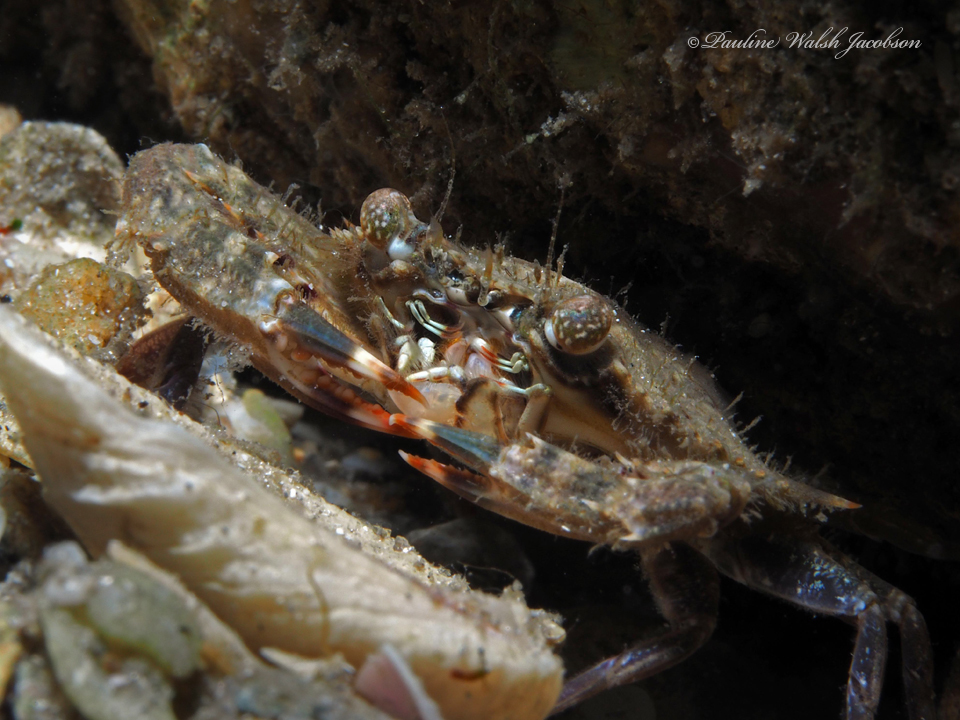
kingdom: Animalia
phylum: Arthropoda
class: Malacostraca
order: Decapoda
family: Portunidae
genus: Achelous
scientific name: Achelous spinimanus
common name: Spiny-handed portunus
